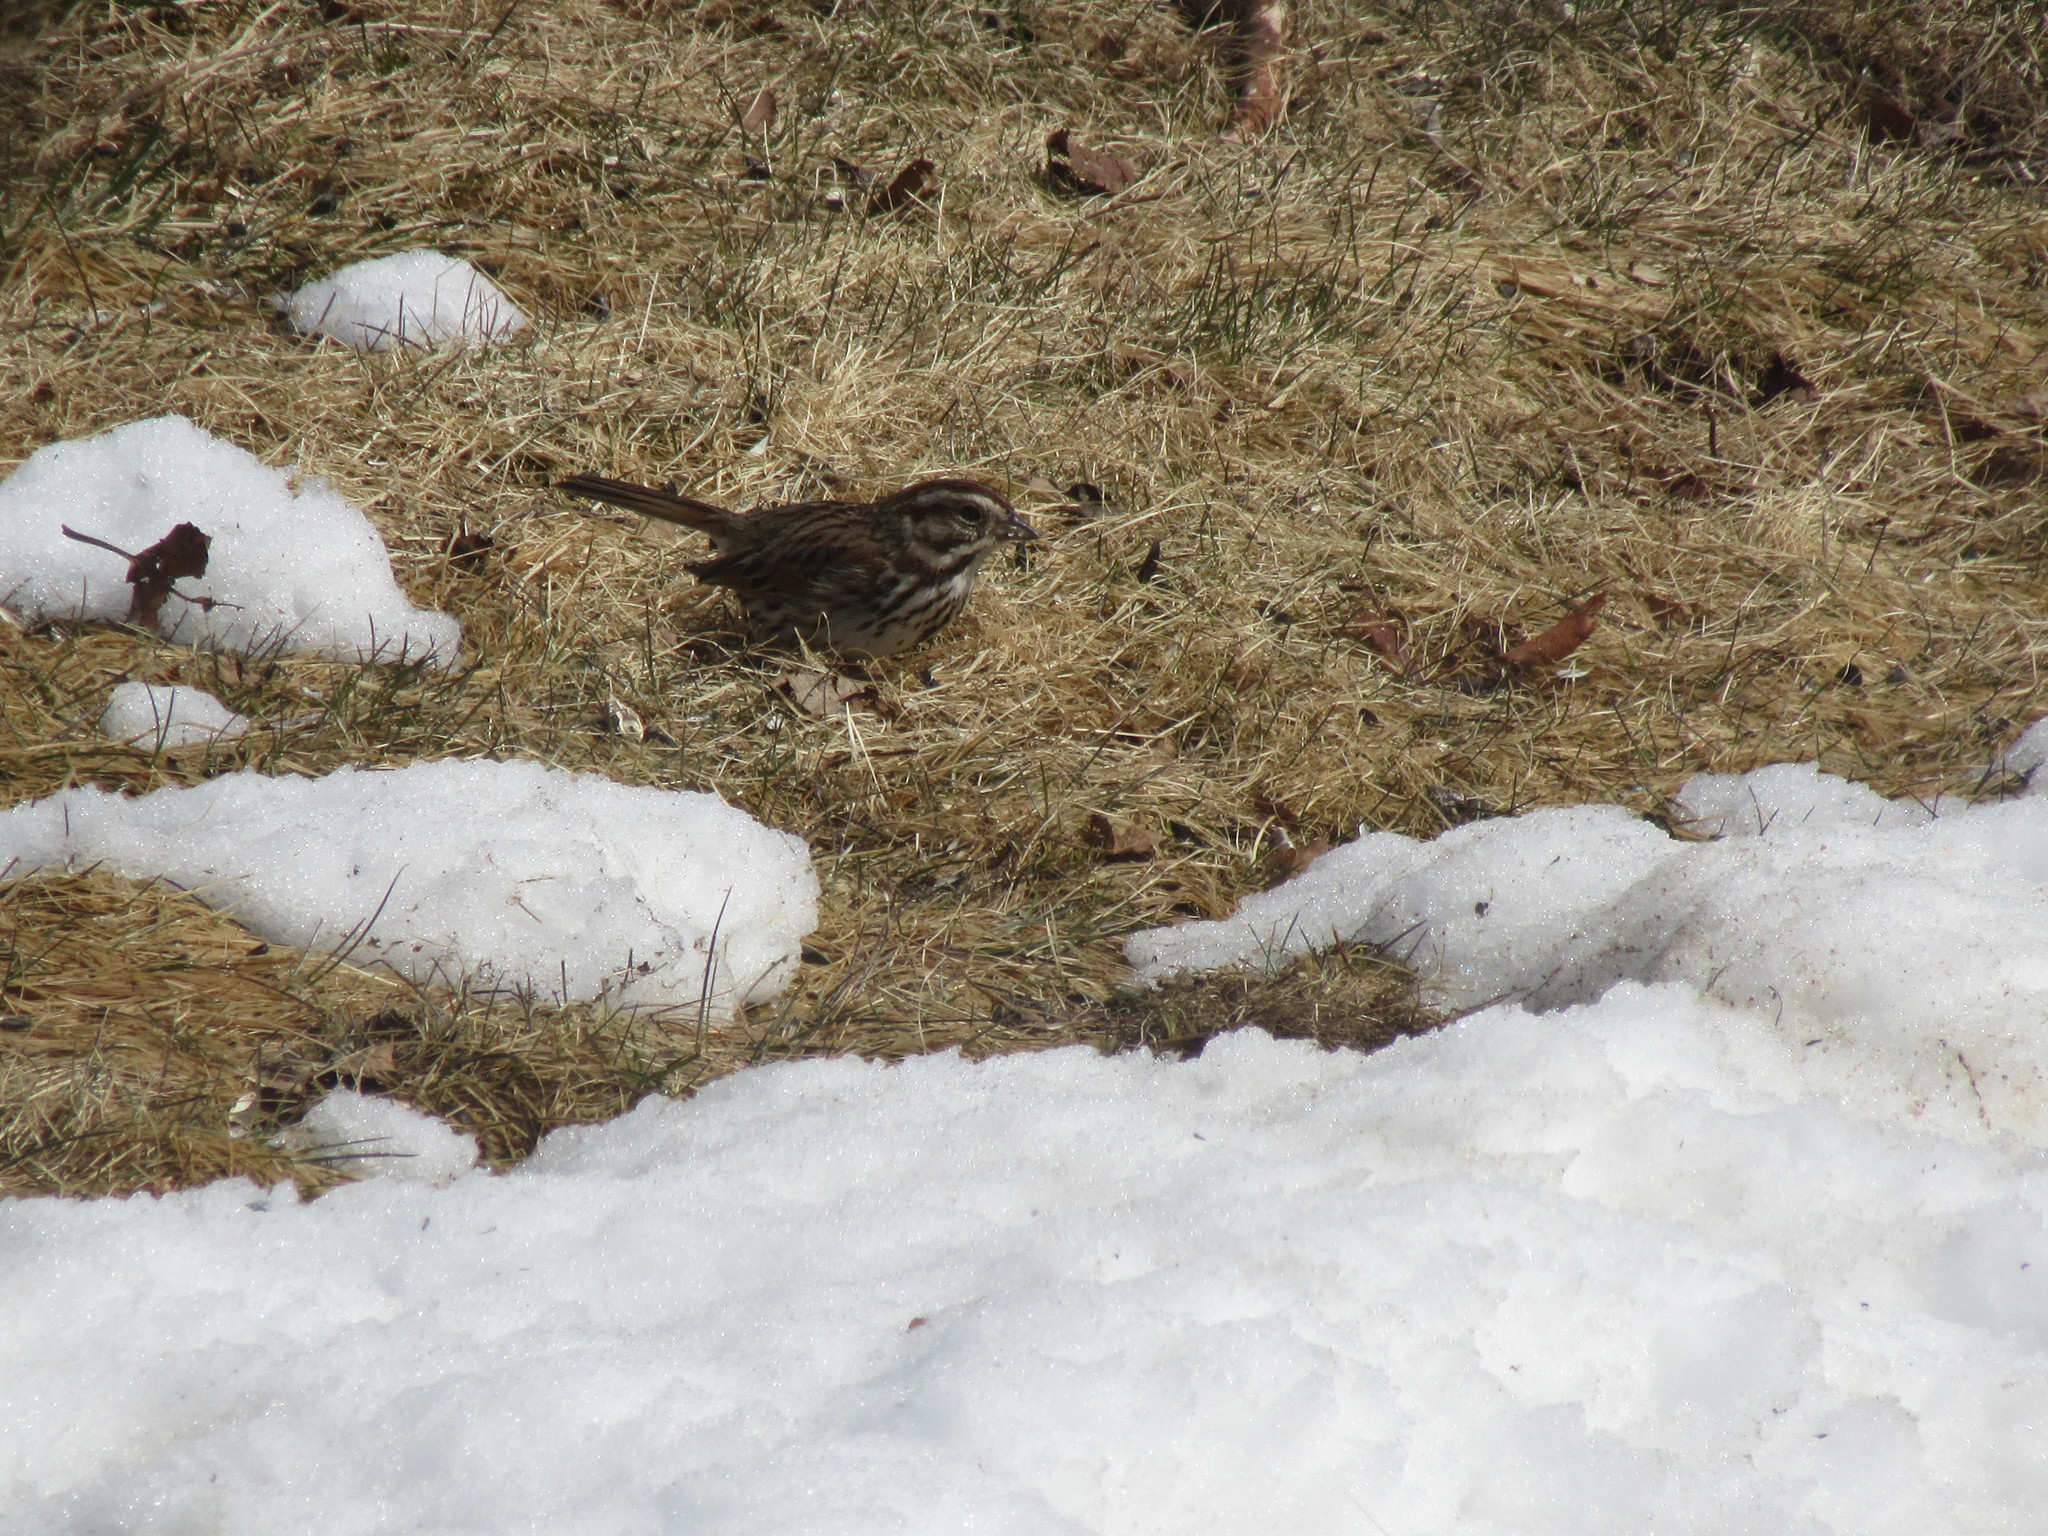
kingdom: Animalia
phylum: Chordata
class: Aves
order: Passeriformes
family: Passerellidae
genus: Melospiza
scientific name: Melospiza melodia
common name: Song sparrow
